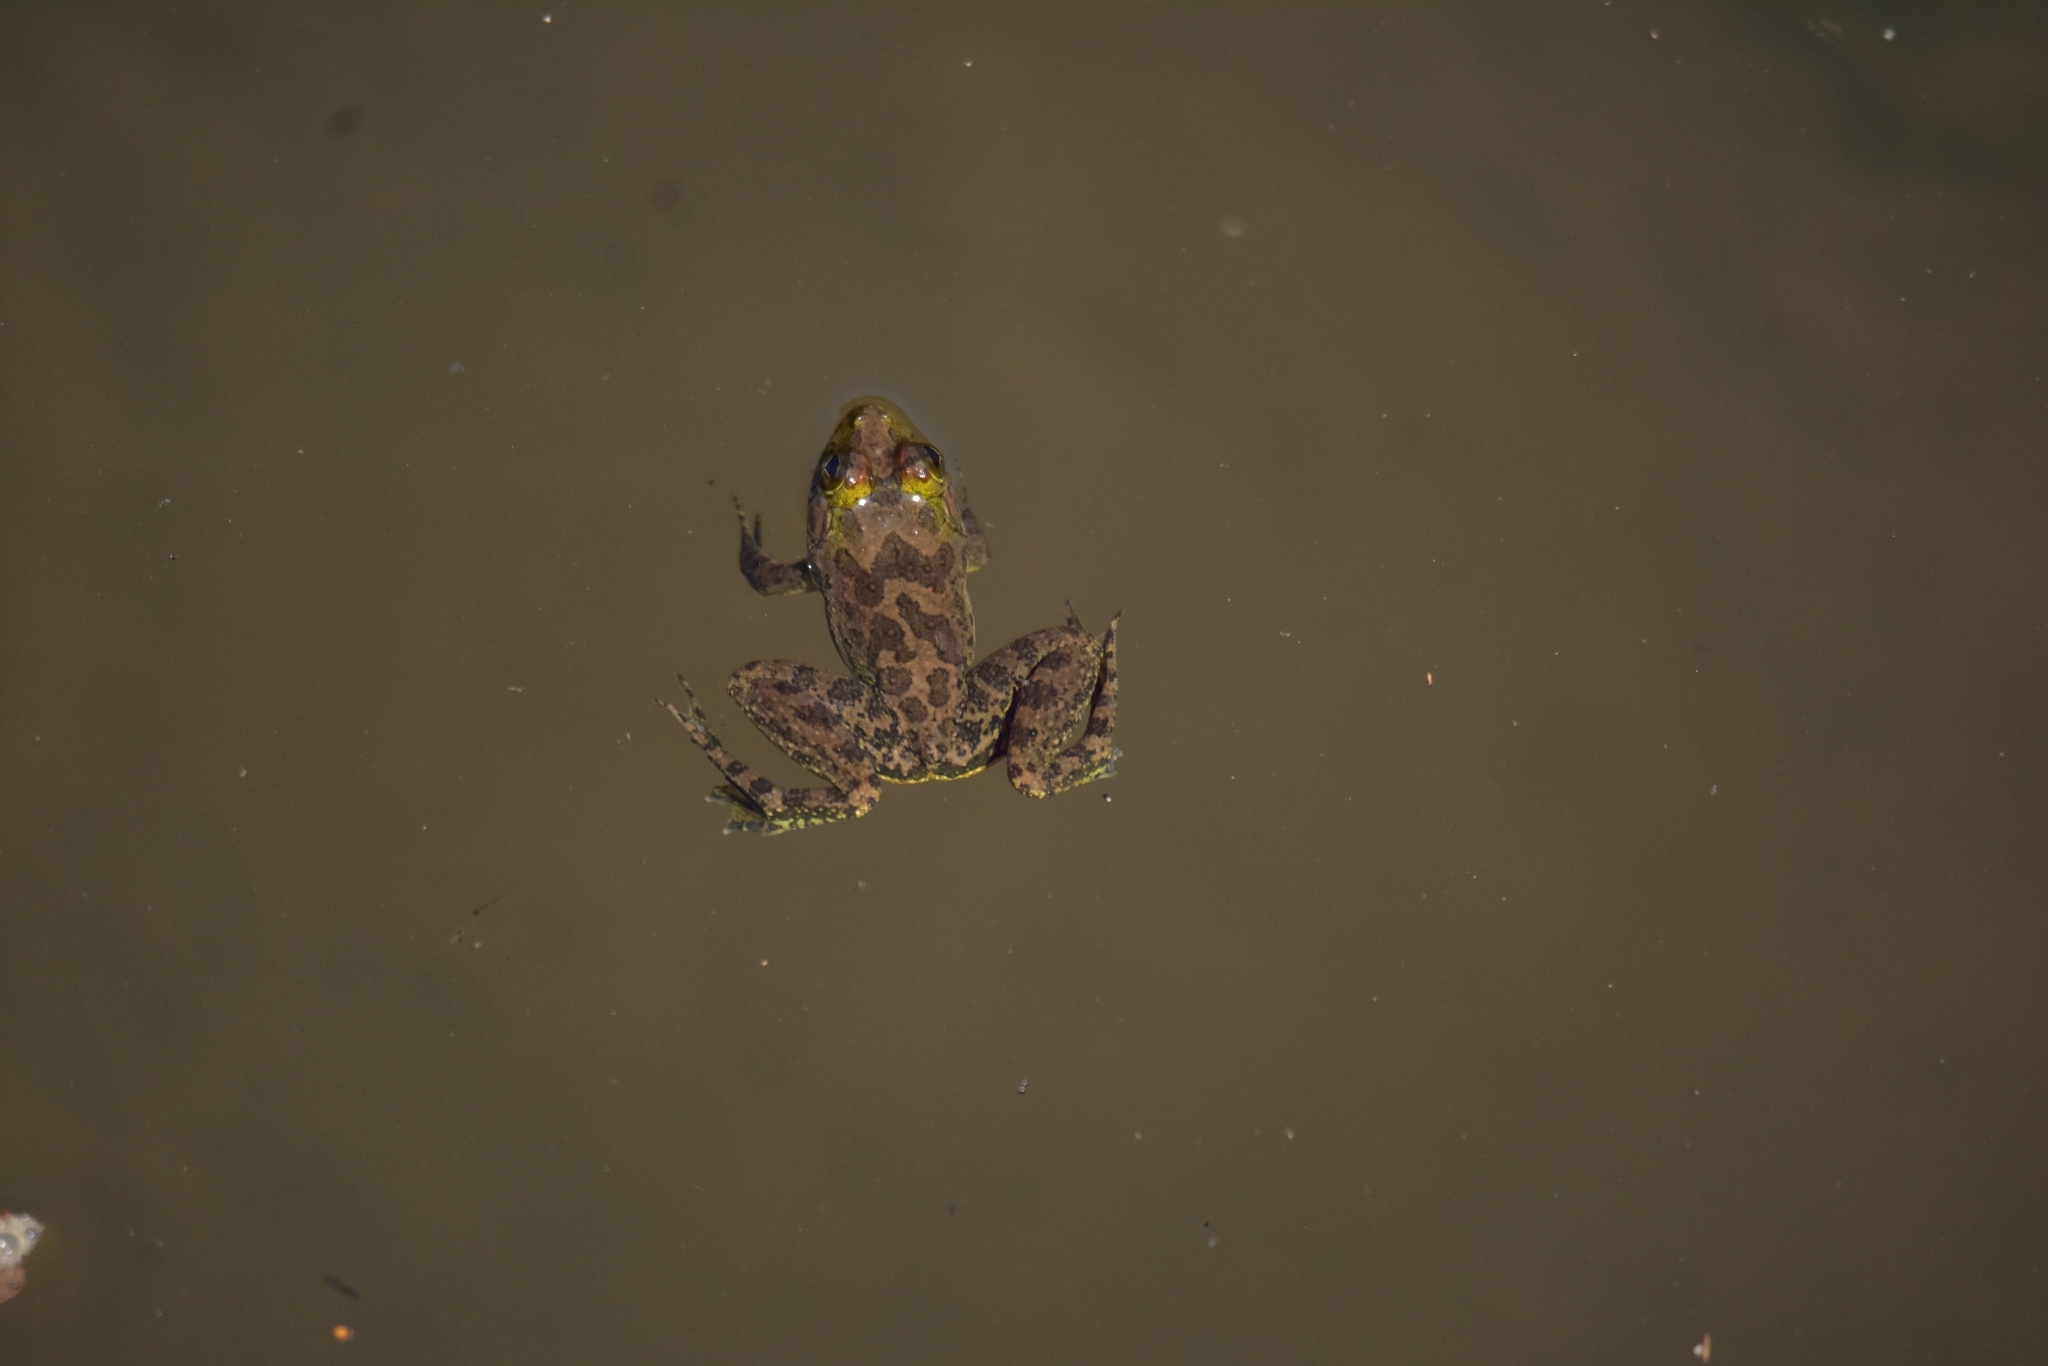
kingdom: Animalia
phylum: Chordata
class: Amphibia
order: Anura
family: Dicroglossidae
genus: Euphlyctis
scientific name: Euphlyctis cyanophlyctis
